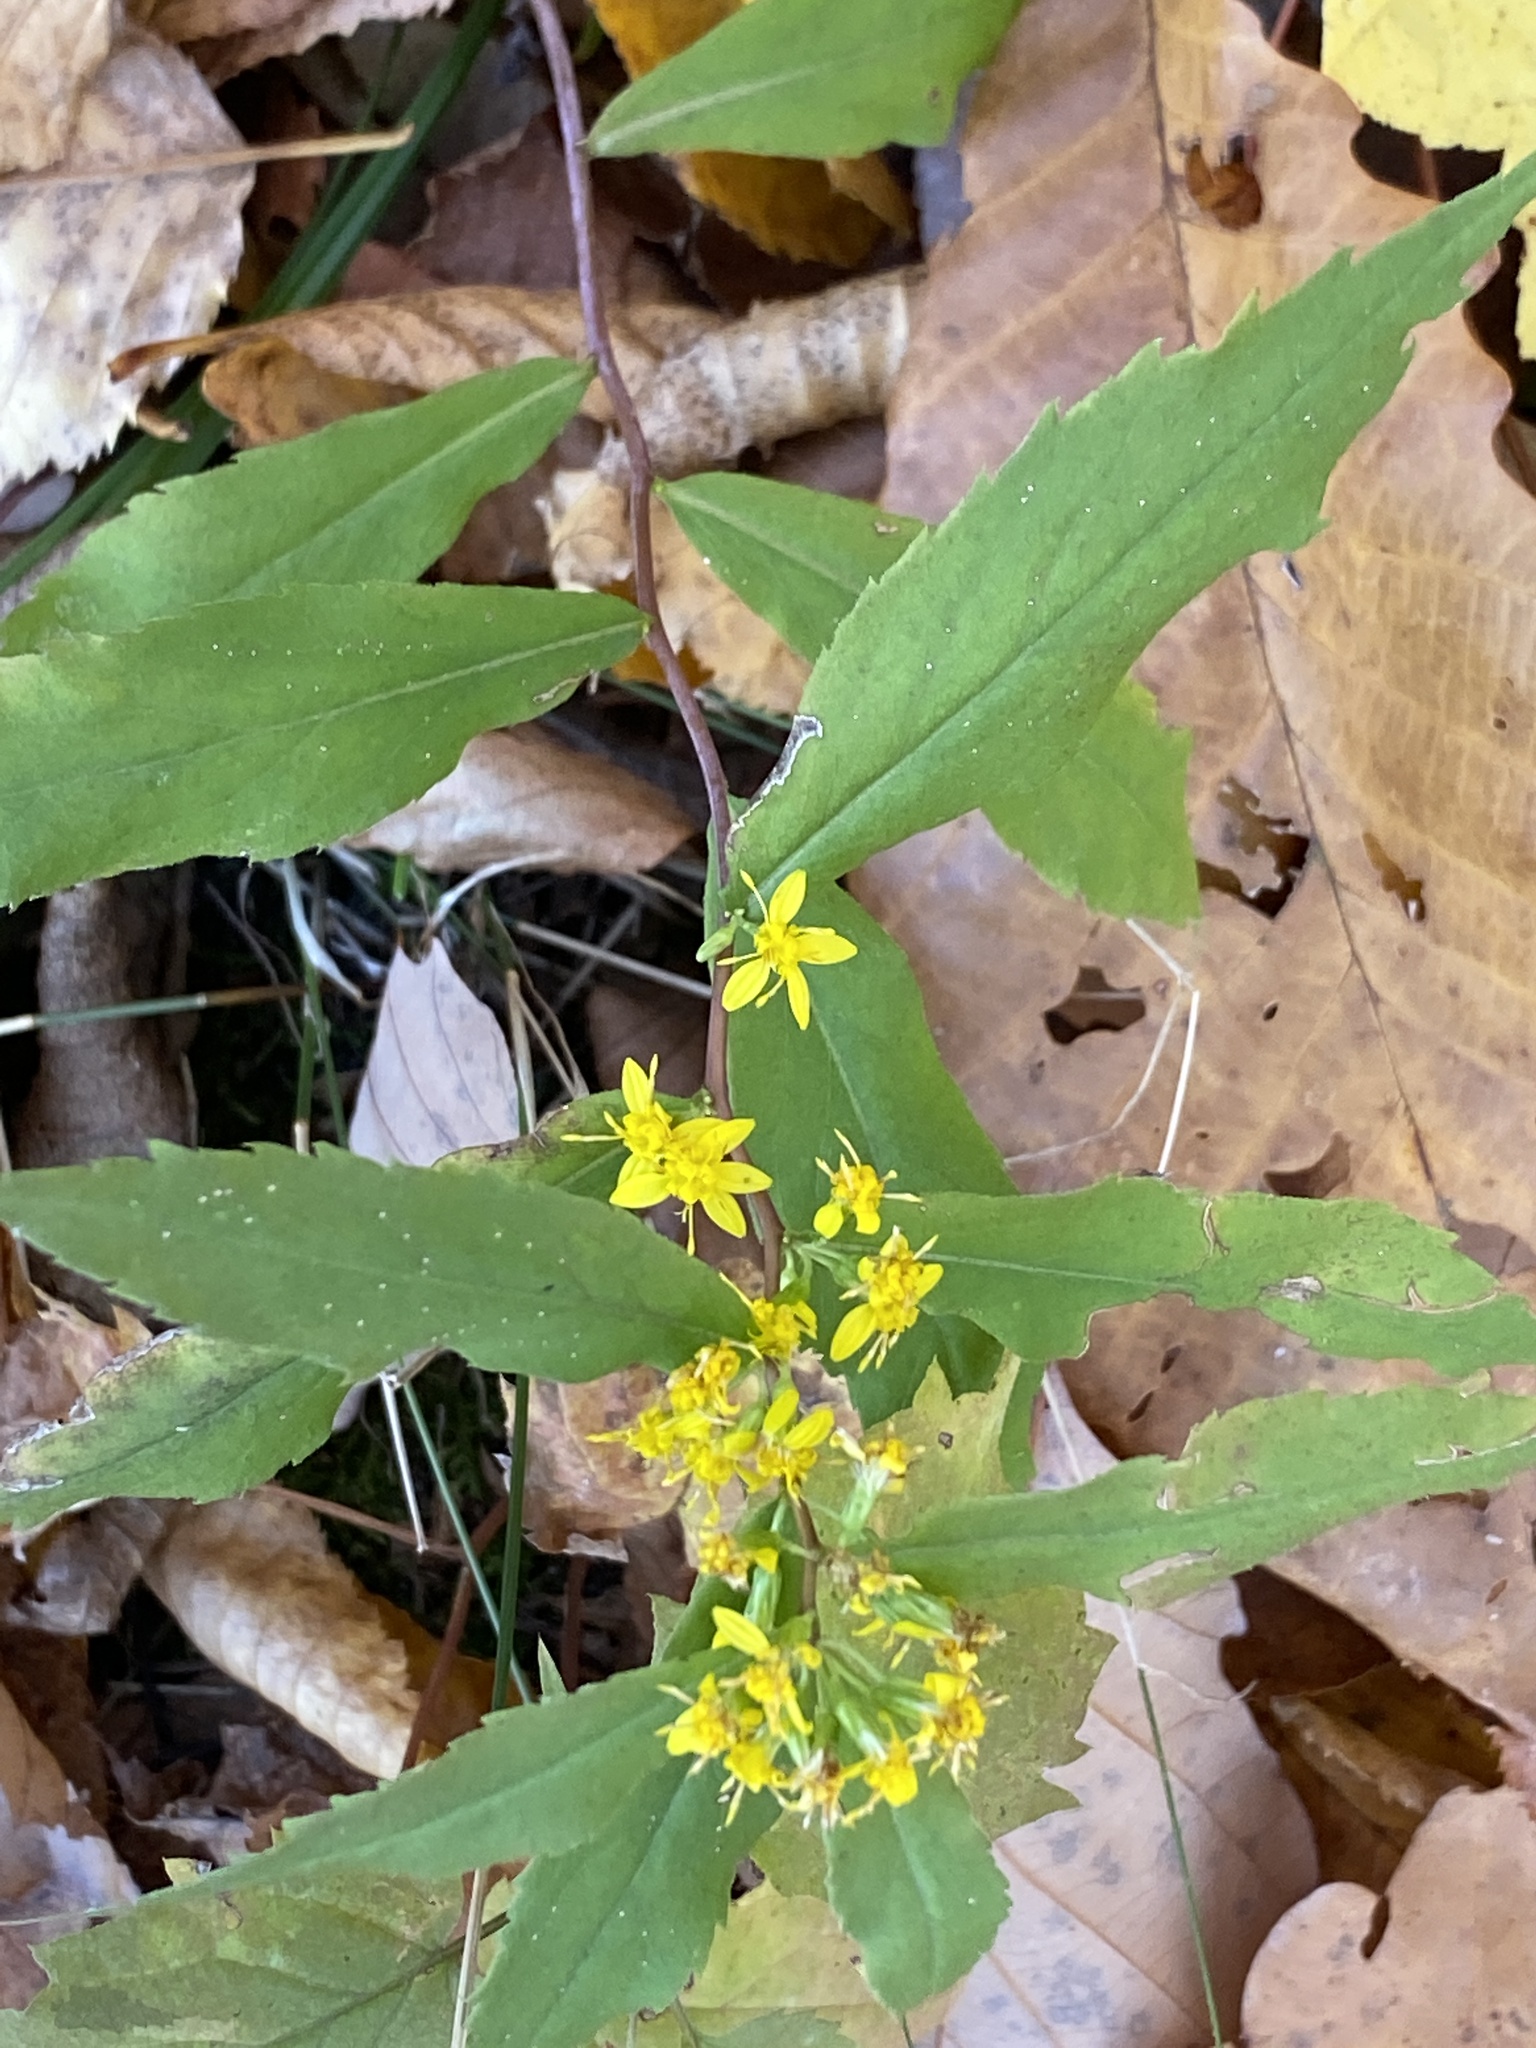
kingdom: Plantae
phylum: Tracheophyta
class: Magnoliopsida
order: Asterales
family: Asteraceae
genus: Solidago
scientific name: Solidago caesia
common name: Woodland goldenrod
